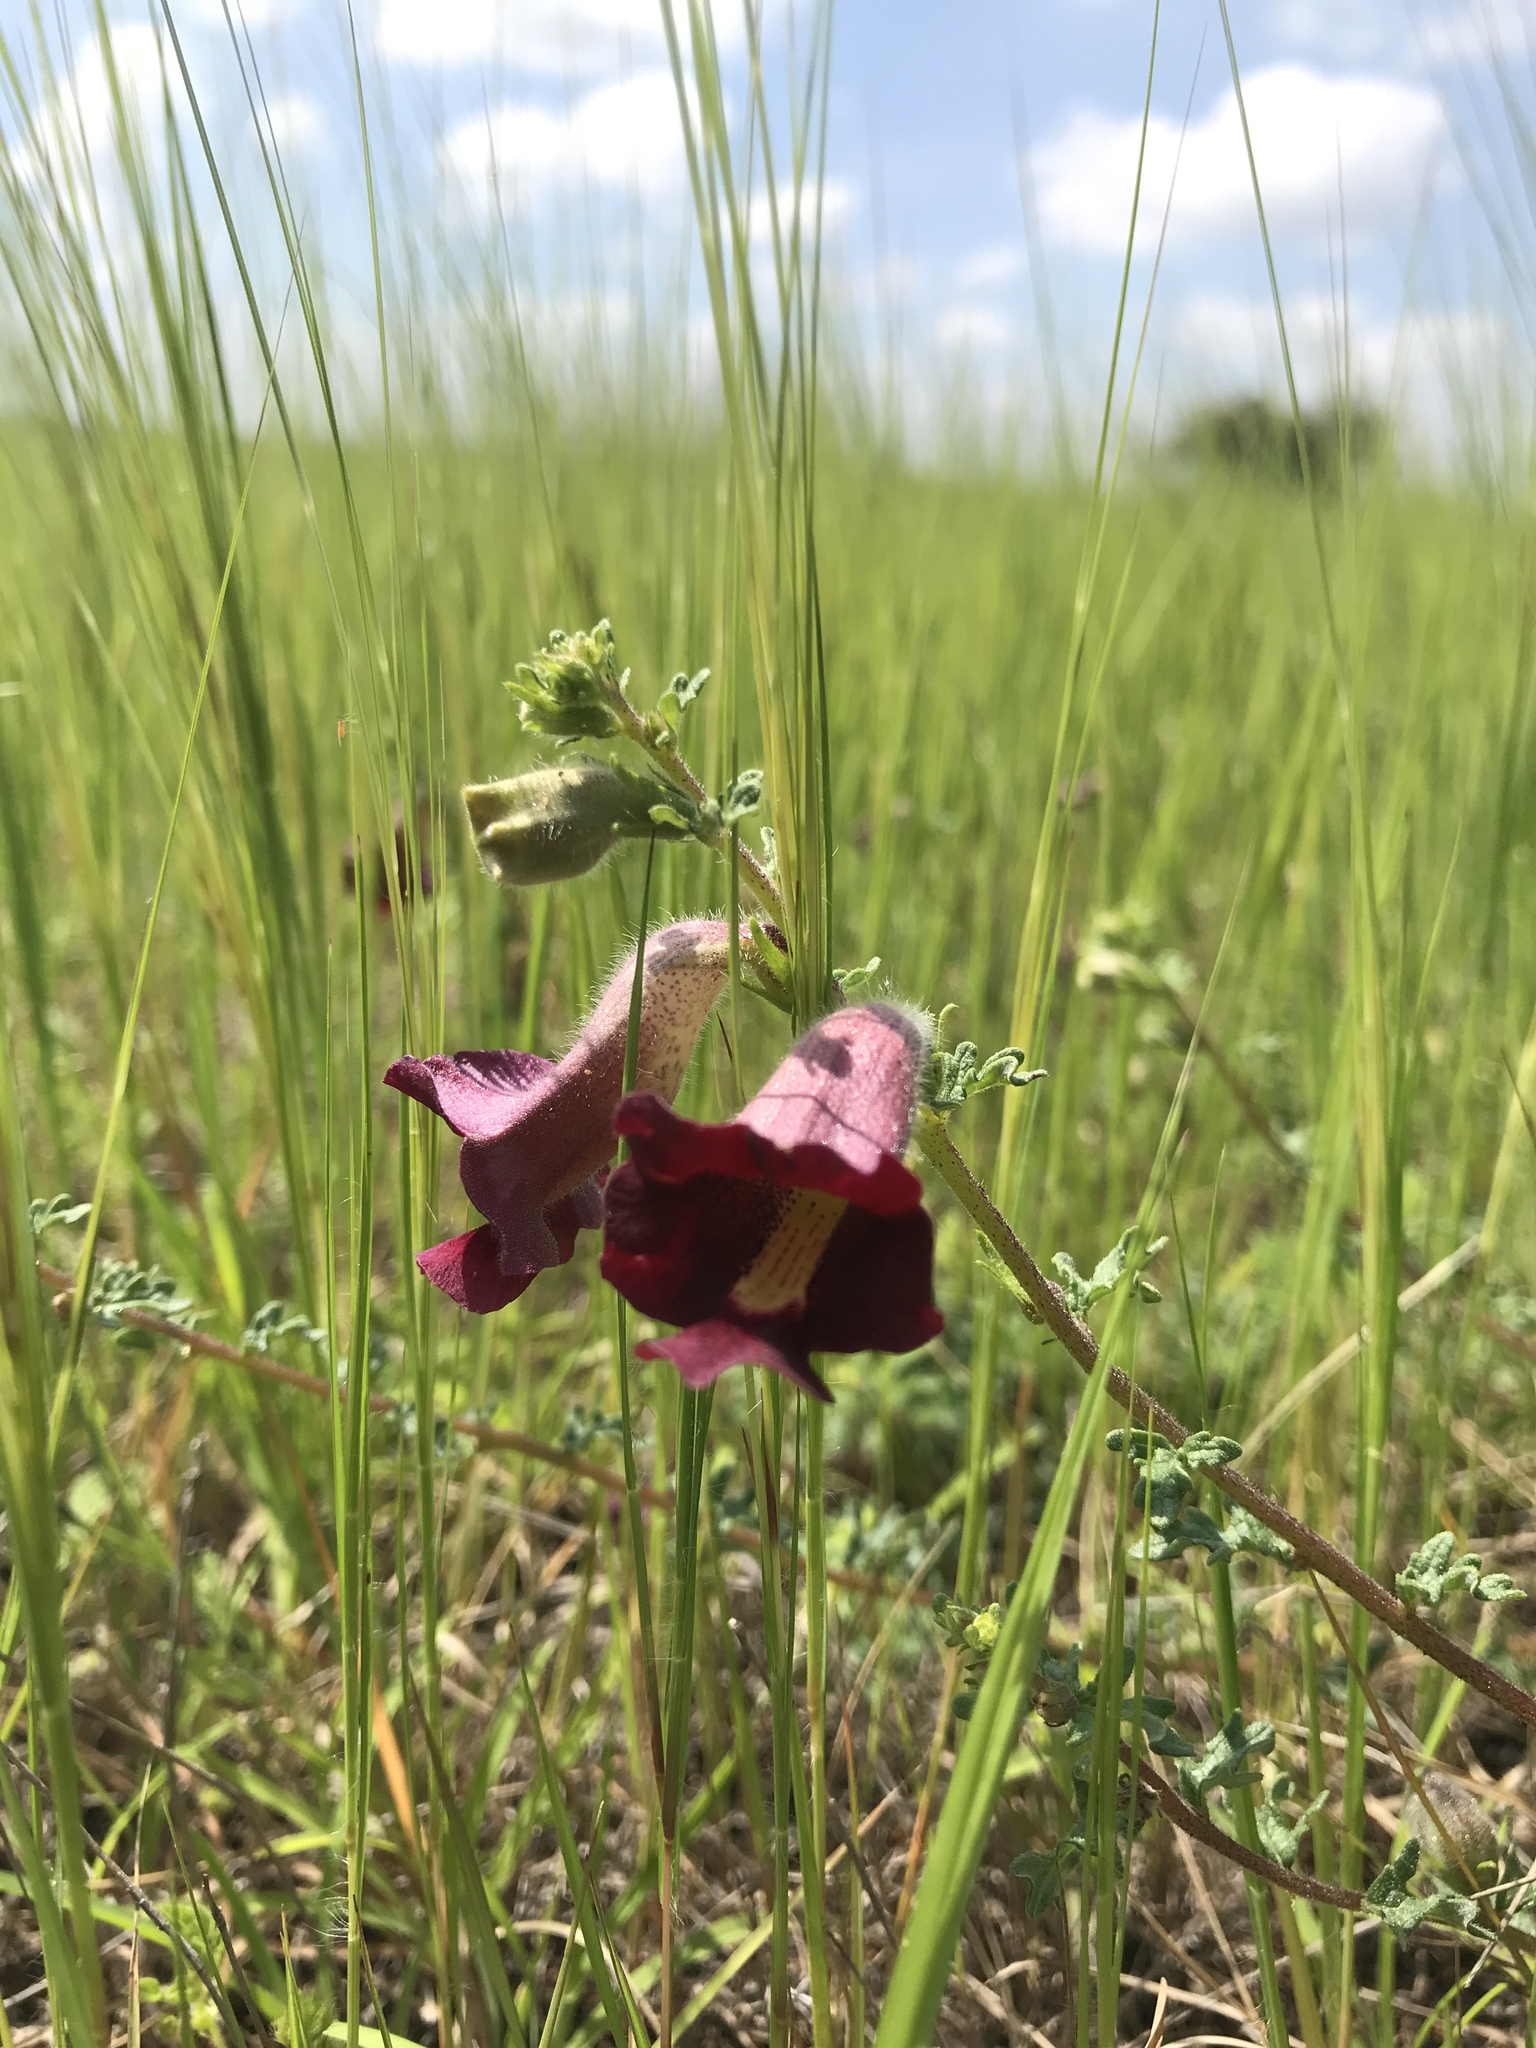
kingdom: Plantae
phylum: Tracheophyta
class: Magnoliopsida
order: Lamiales
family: Pedaliaceae
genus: Sesamum
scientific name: Sesamum prostratum
